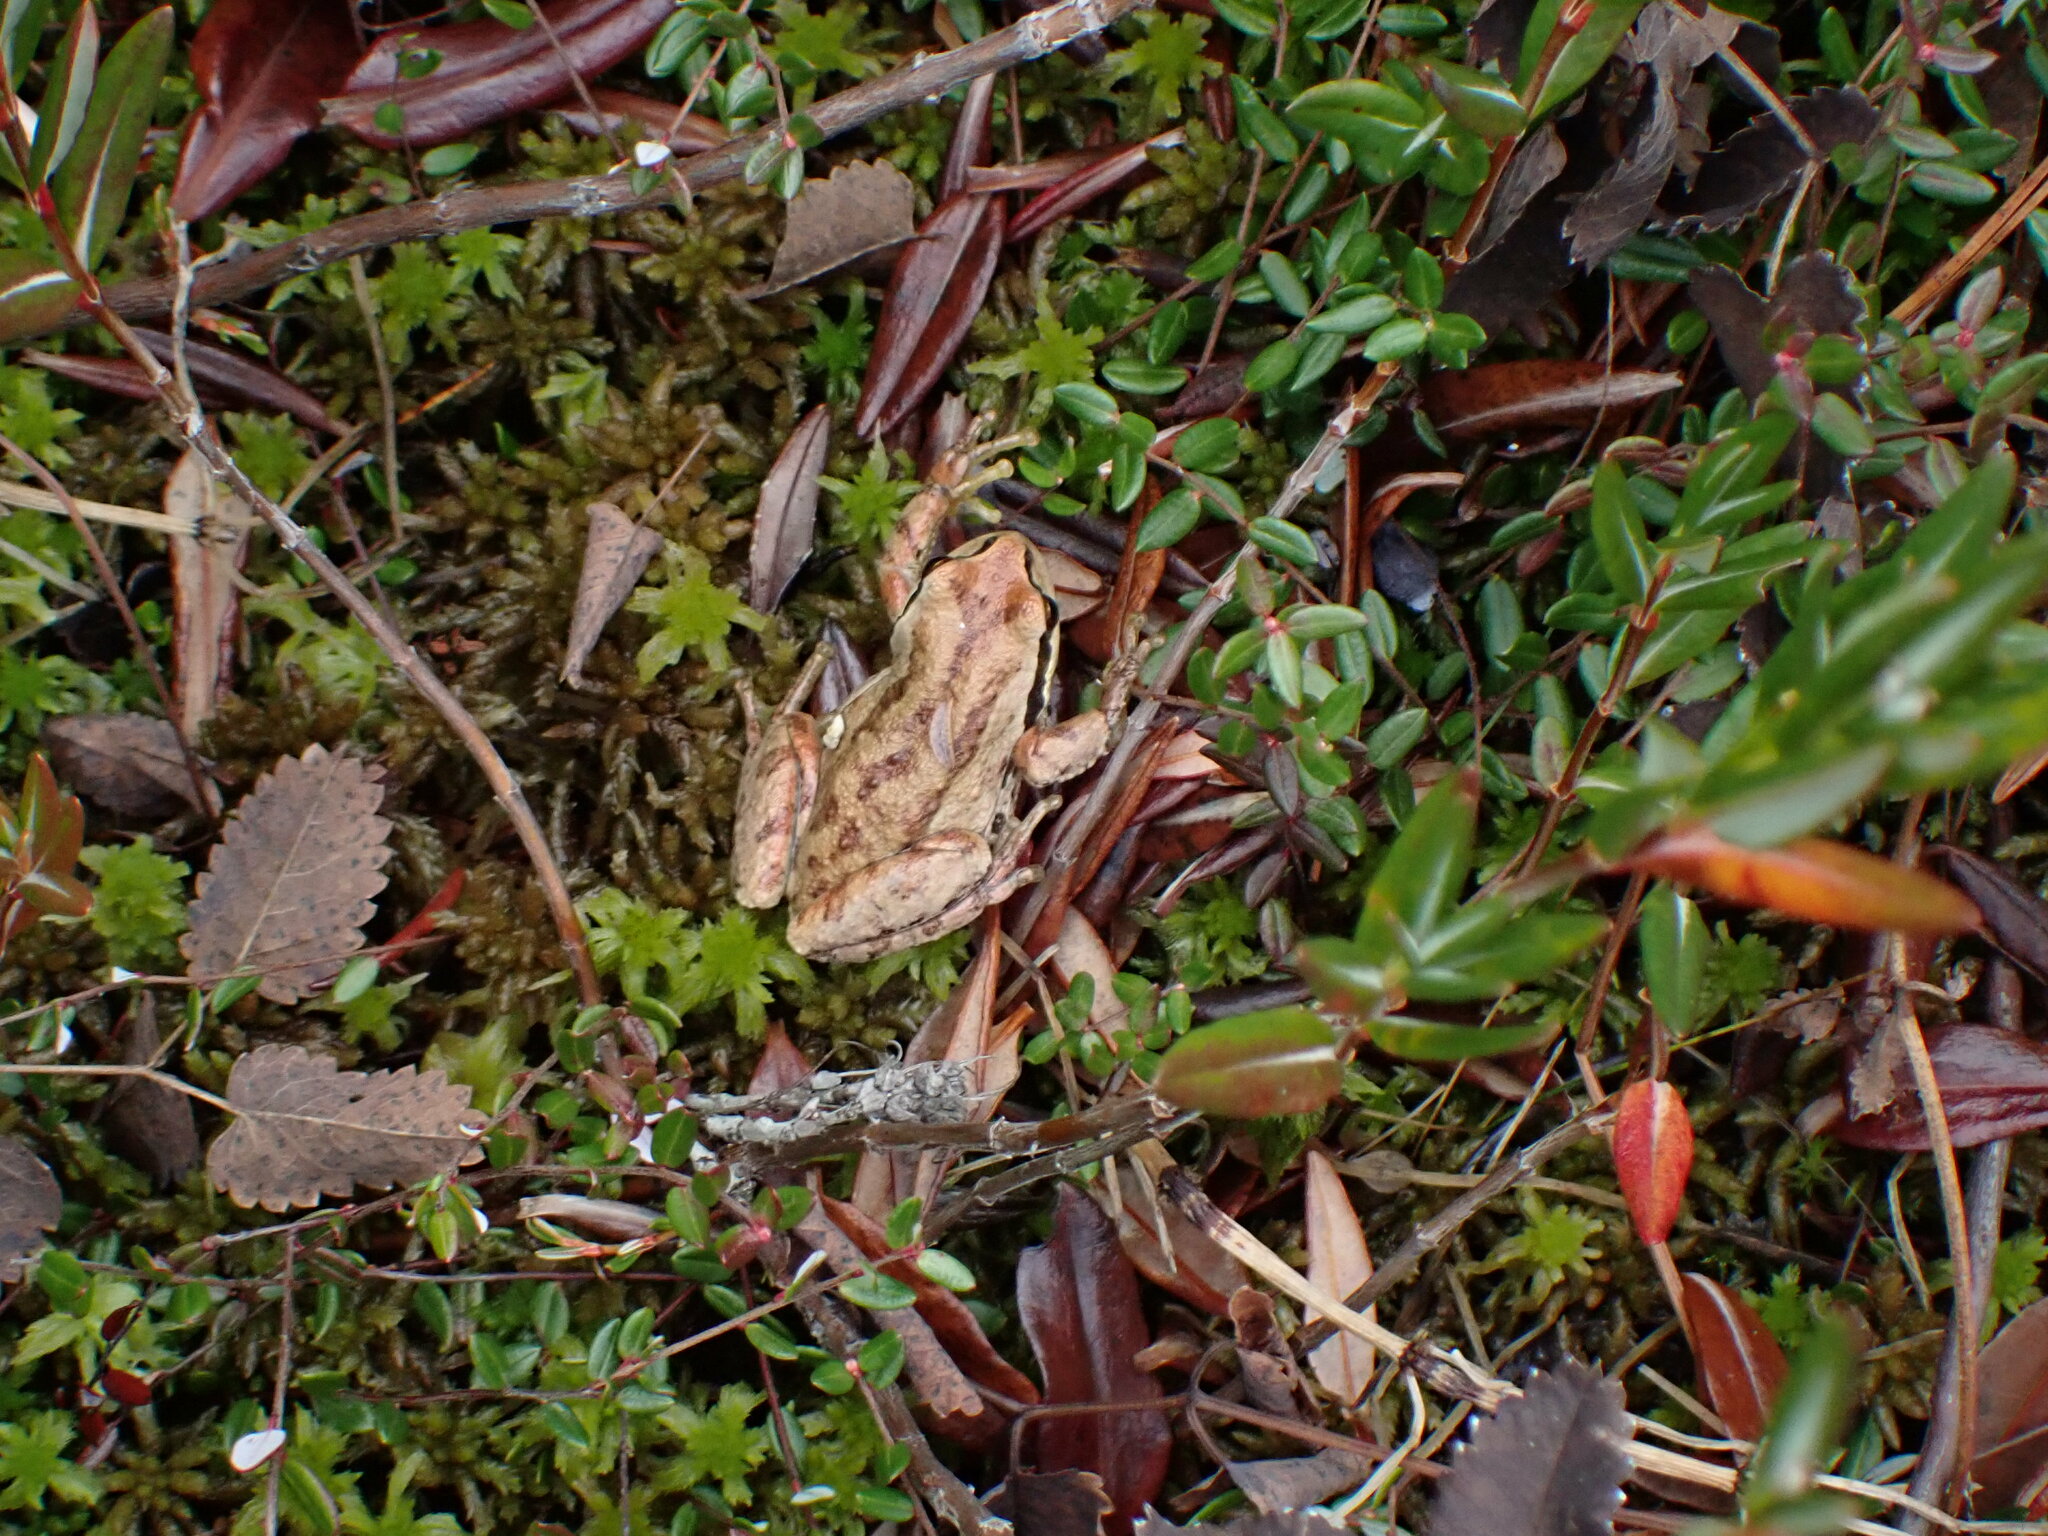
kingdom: Animalia
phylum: Chordata
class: Amphibia
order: Anura
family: Hylidae
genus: Pseudacris
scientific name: Pseudacris regilla
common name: Pacific chorus frog
